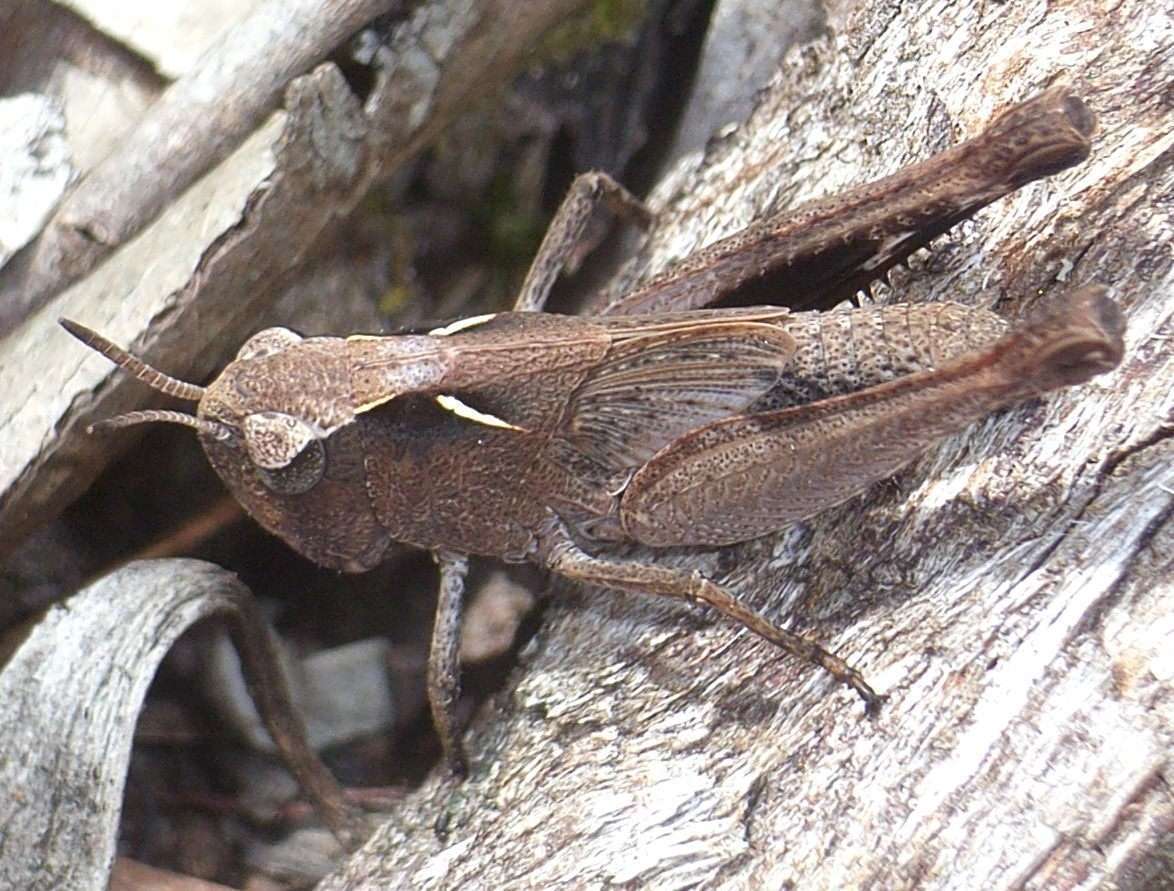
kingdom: Animalia
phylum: Arthropoda
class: Insecta
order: Orthoptera
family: Acrididae
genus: Cryptobothrus
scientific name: Cryptobothrus chrysophorus
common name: Golden bandwing
